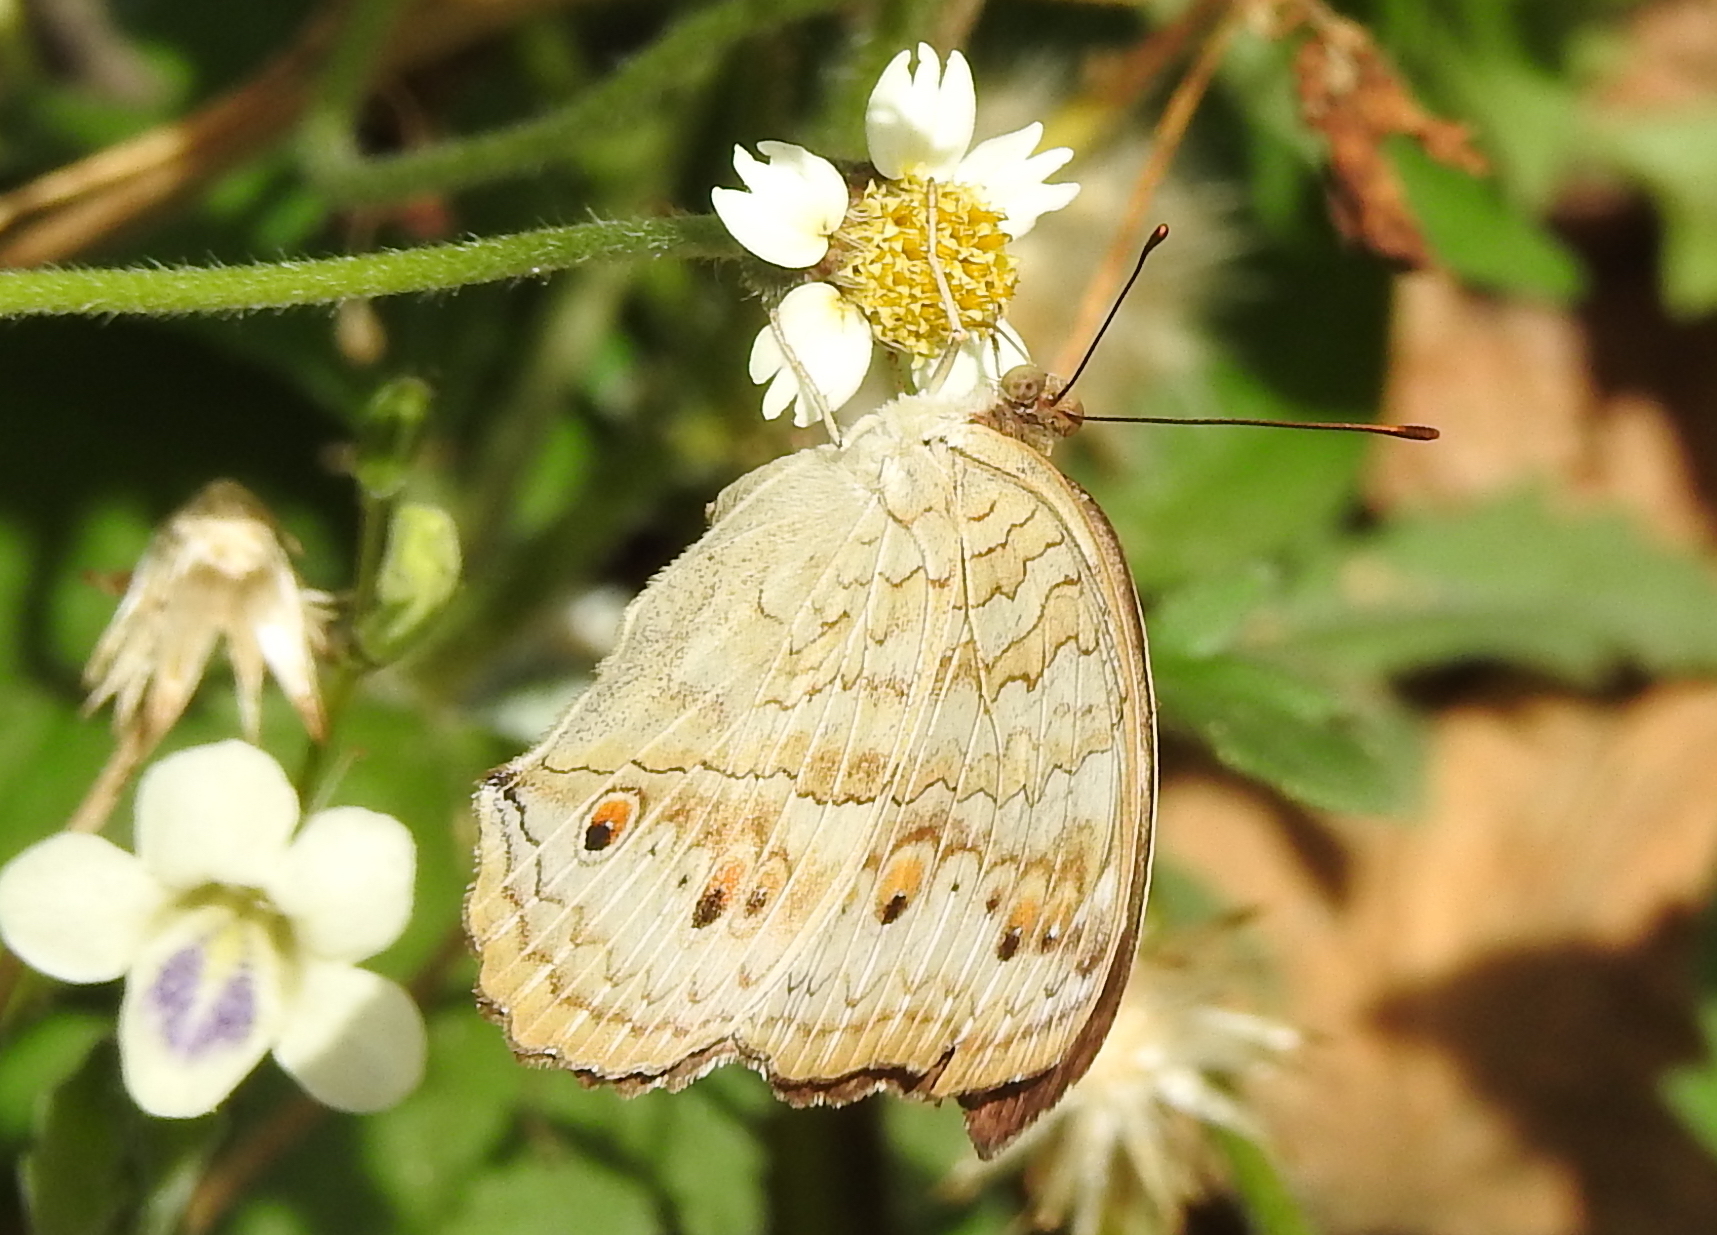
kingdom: Animalia
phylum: Arthropoda
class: Insecta
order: Lepidoptera
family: Nymphalidae
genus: Junonia
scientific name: Junonia atlites
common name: Grey pansy
